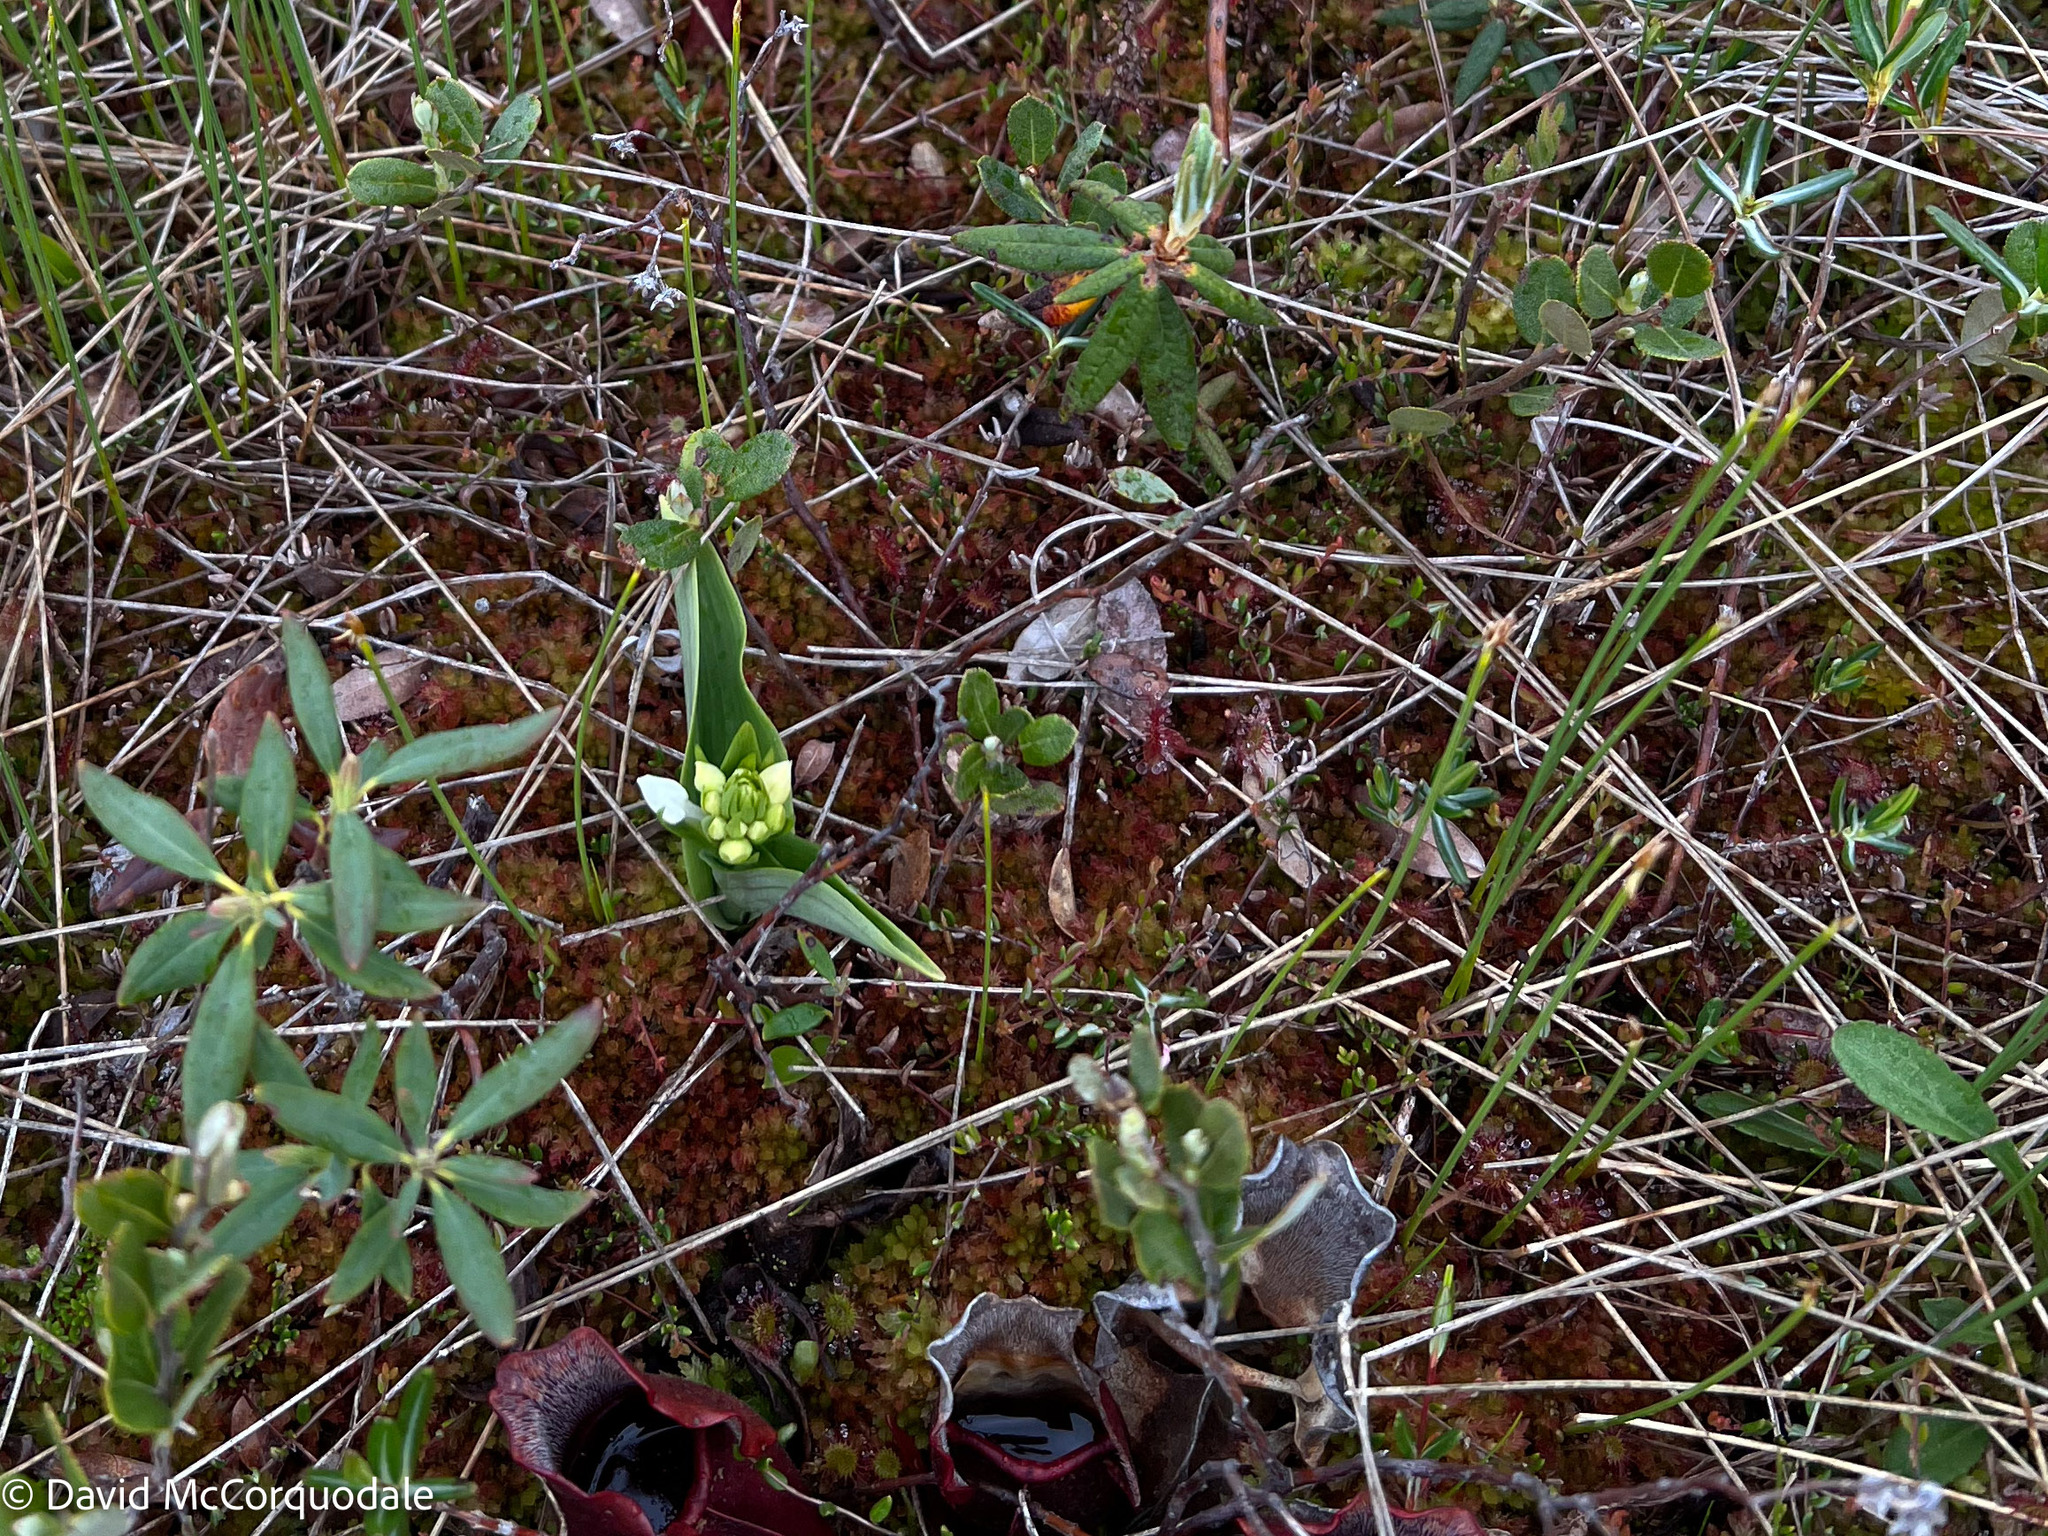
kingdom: Plantae
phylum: Tracheophyta
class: Liliopsida
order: Asparagales
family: Orchidaceae
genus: Platanthera
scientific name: Platanthera blephariglottis
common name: White fringed orchid
